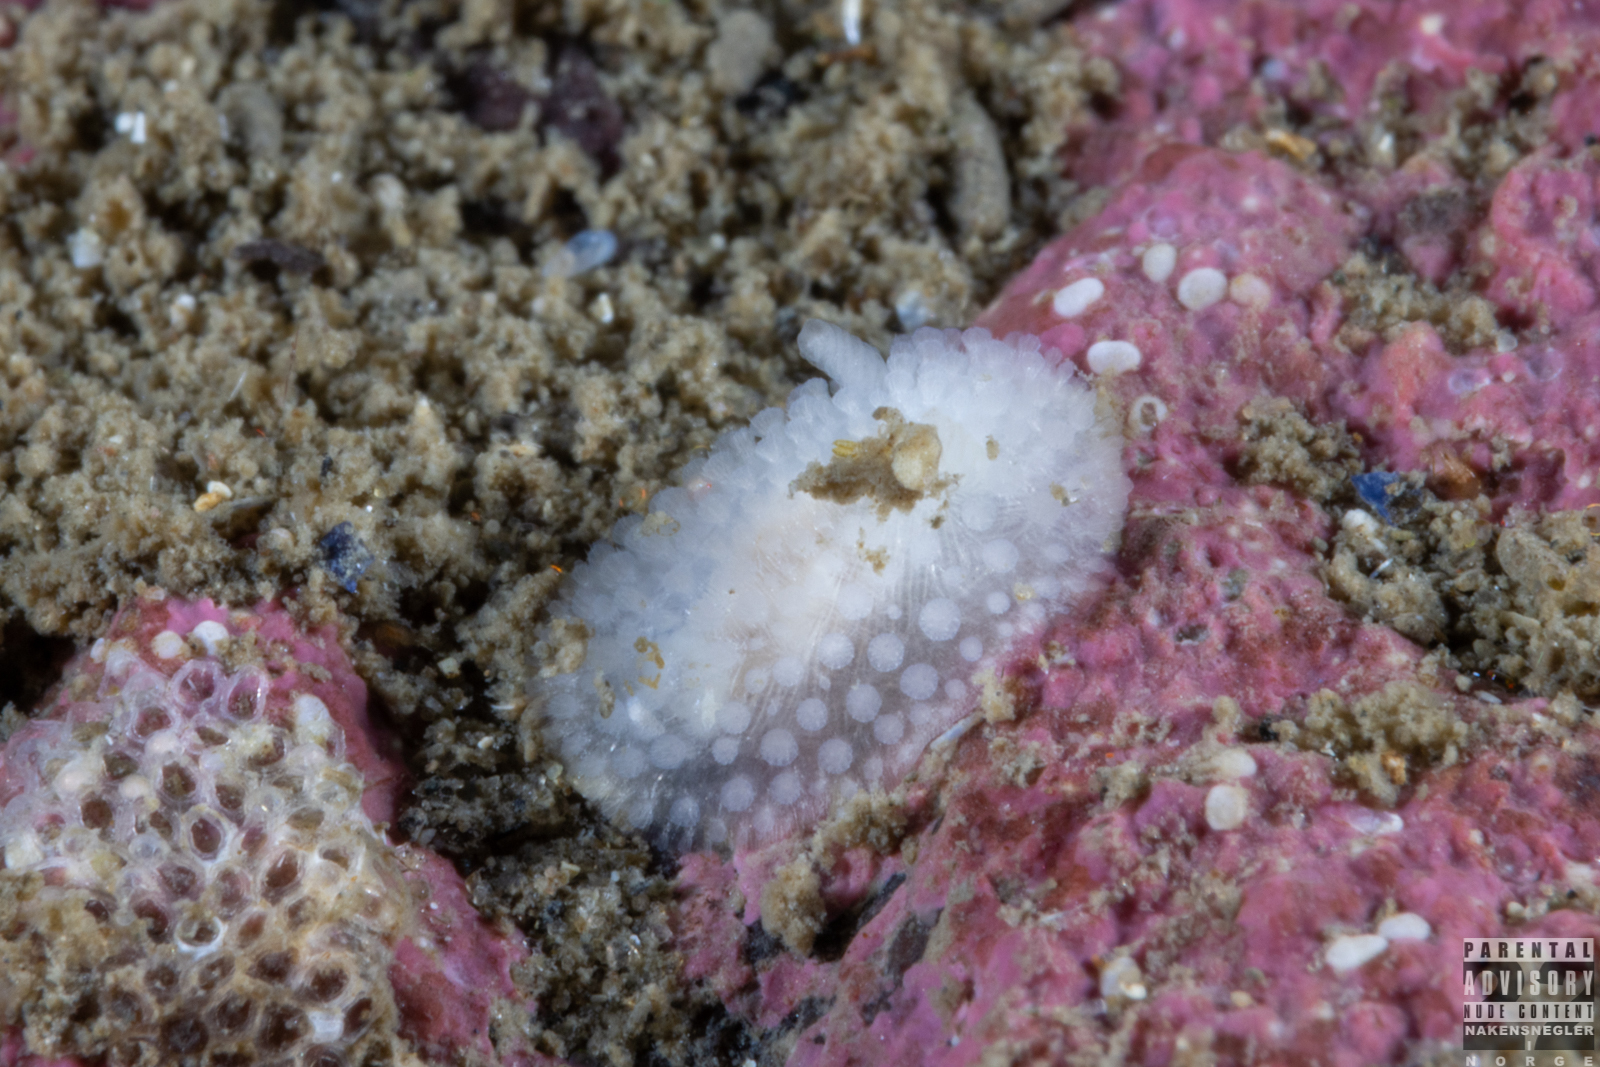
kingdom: Animalia
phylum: Mollusca
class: Gastropoda
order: Nudibranchia
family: Onchidorididae
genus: Onchidoris
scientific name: Onchidoris muricata
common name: Rough doris
